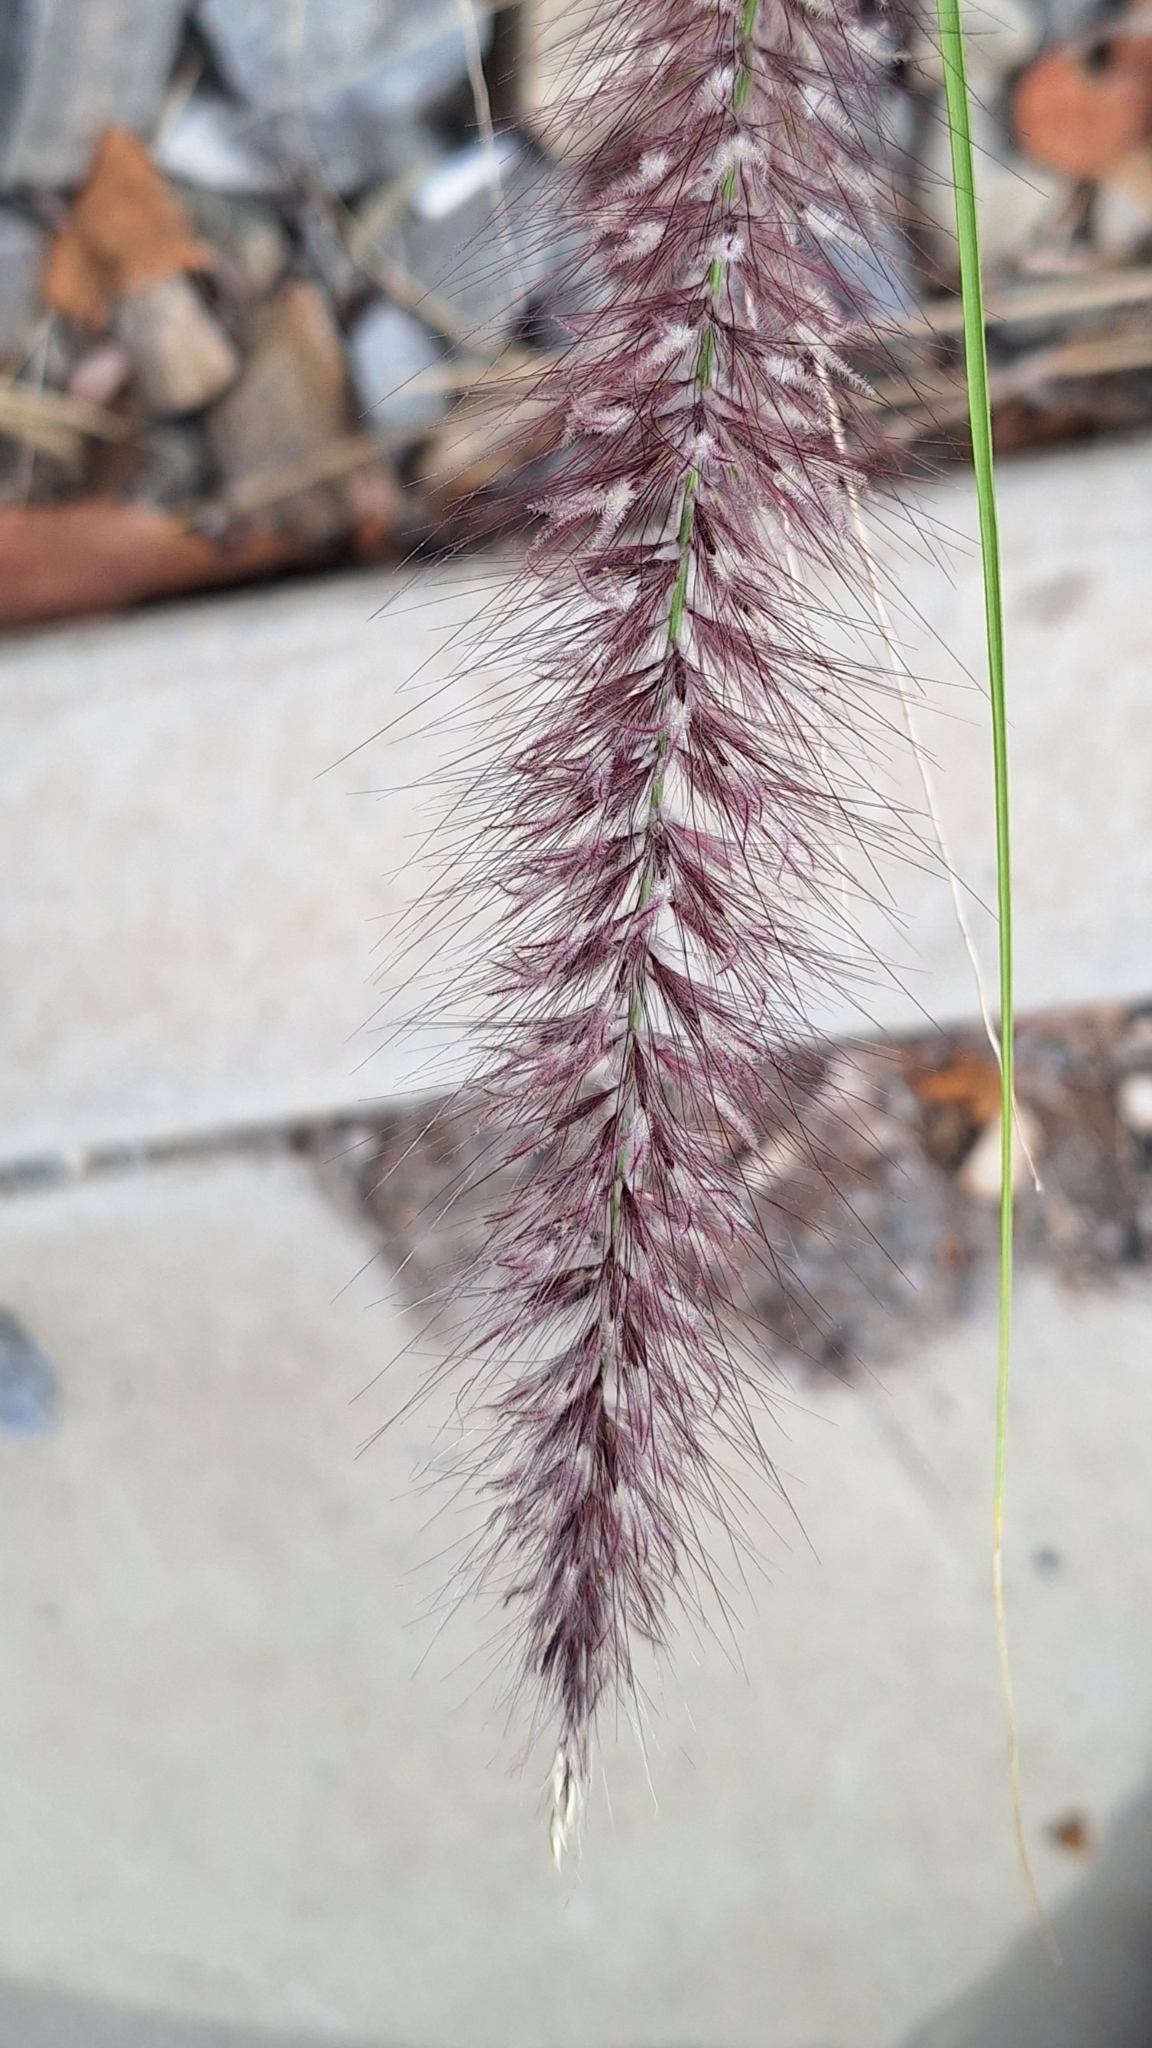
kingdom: Plantae
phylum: Tracheophyta
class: Liliopsida
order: Poales
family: Poaceae
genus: Cenchrus
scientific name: Cenchrus setaceus
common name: Crimson fountaingrass
